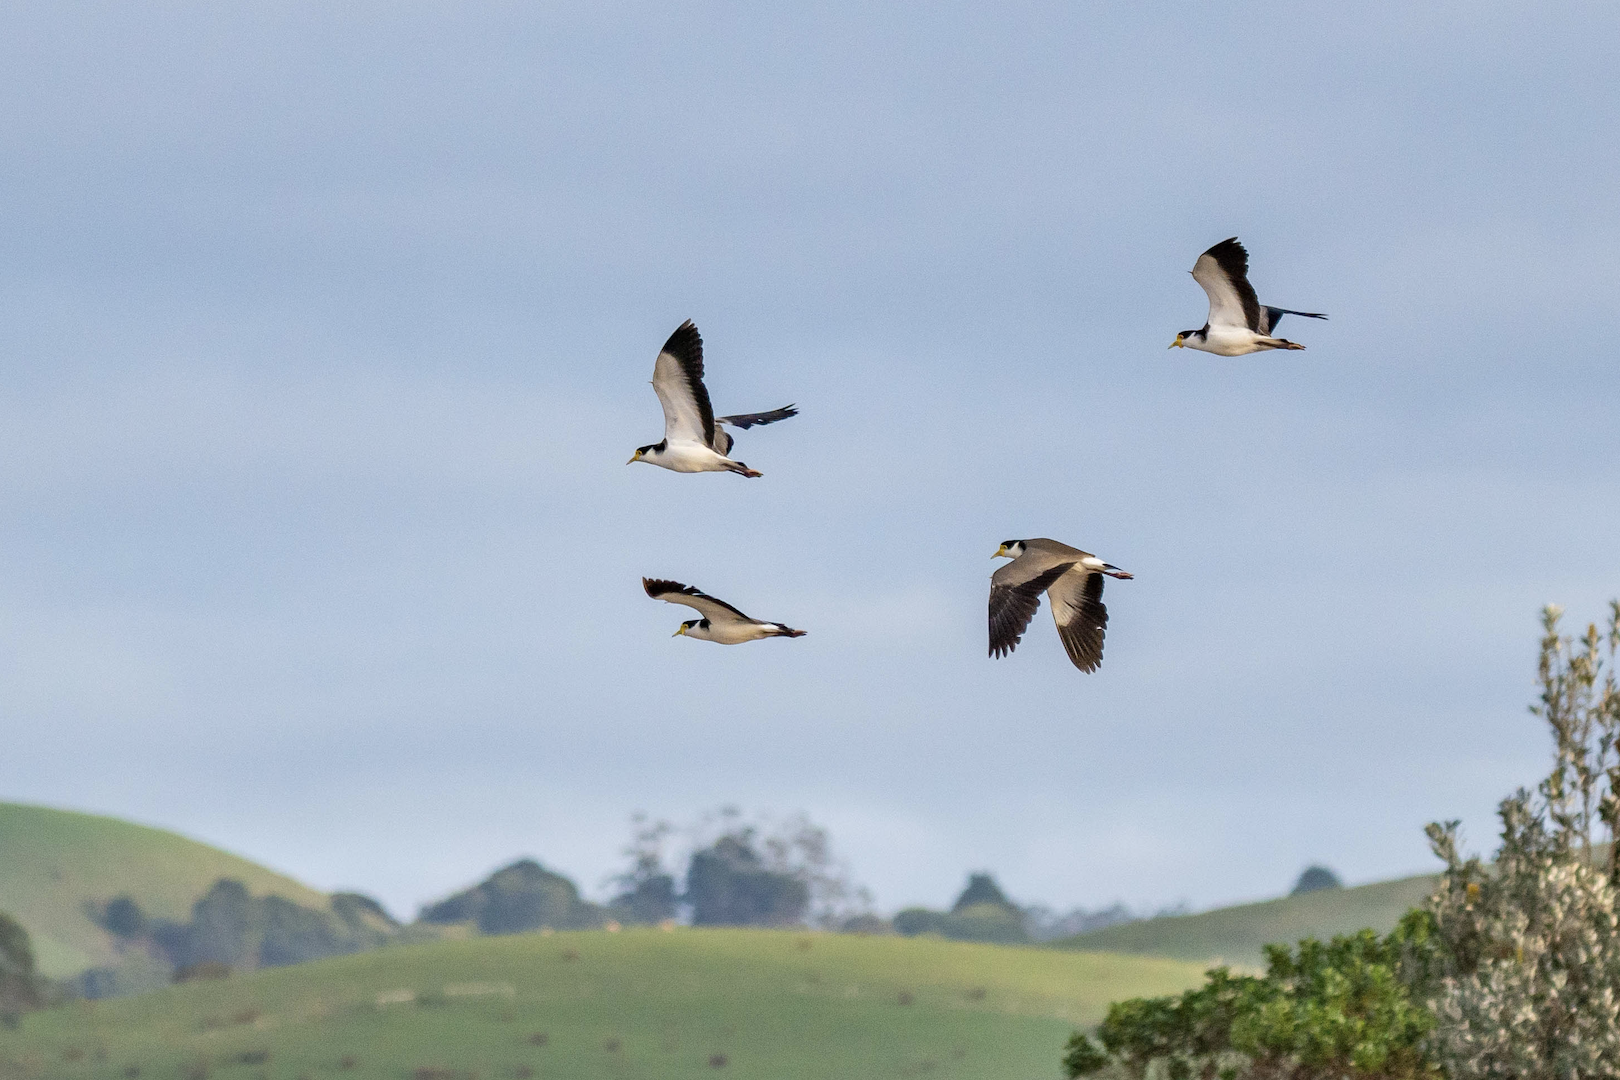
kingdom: Animalia
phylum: Chordata
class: Aves
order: Charadriiformes
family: Charadriidae
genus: Vanellus
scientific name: Vanellus miles
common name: Masked lapwing
